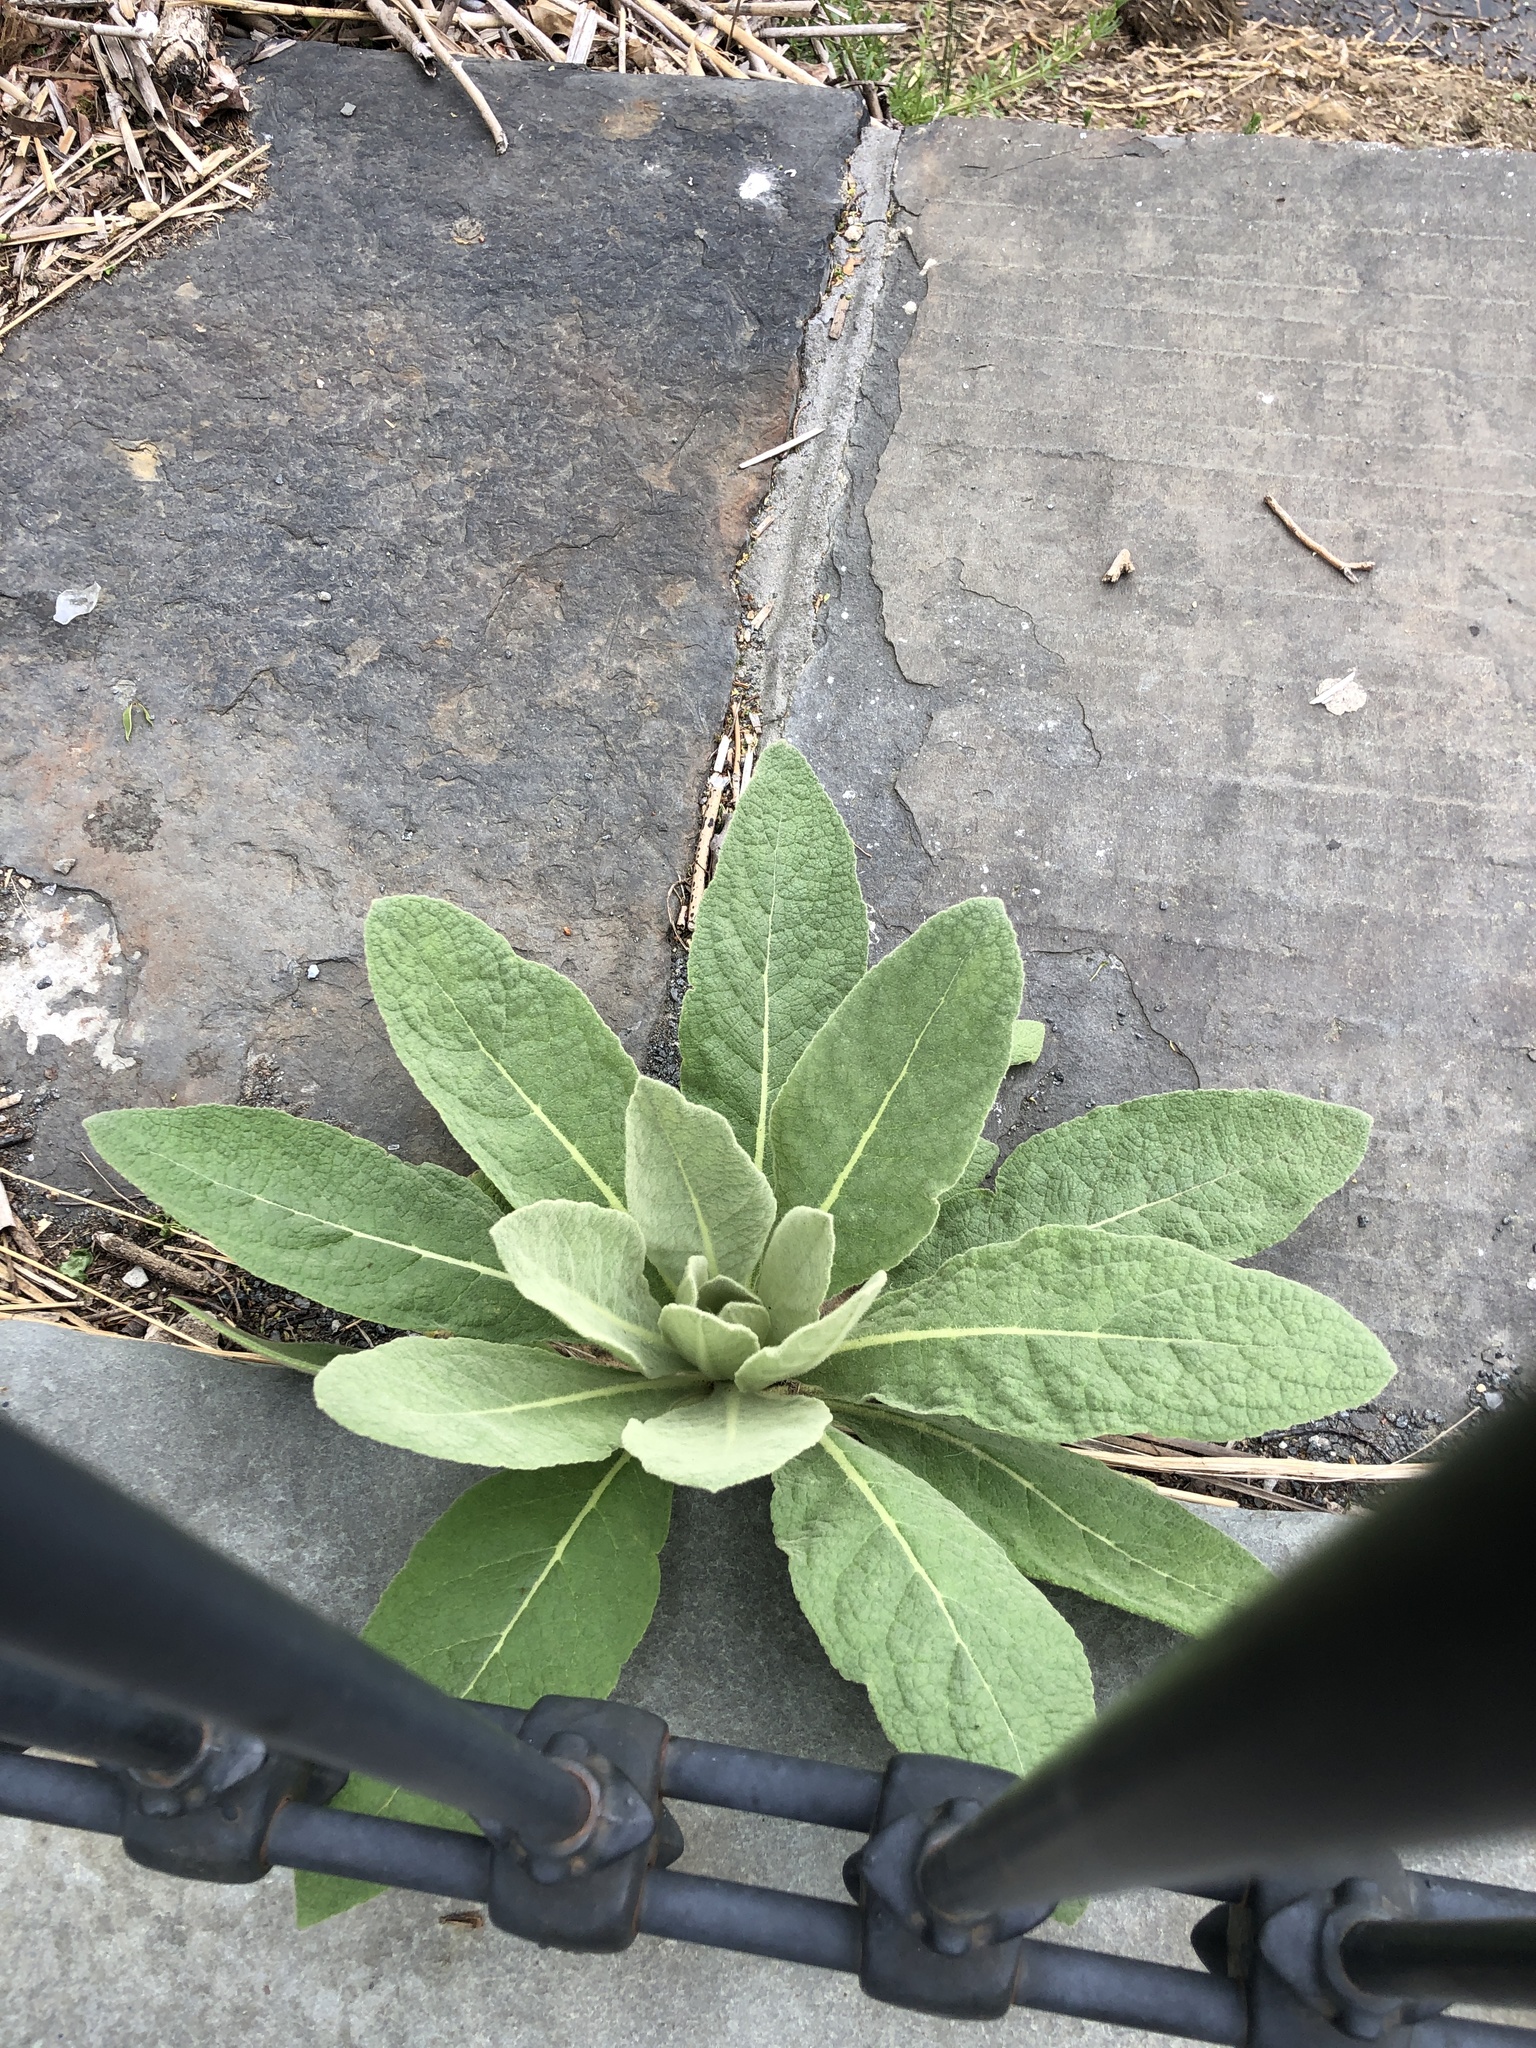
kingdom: Plantae
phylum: Tracheophyta
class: Magnoliopsida
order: Lamiales
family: Scrophulariaceae
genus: Verbascum
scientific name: Verbascum thapsus
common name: Common mullein
